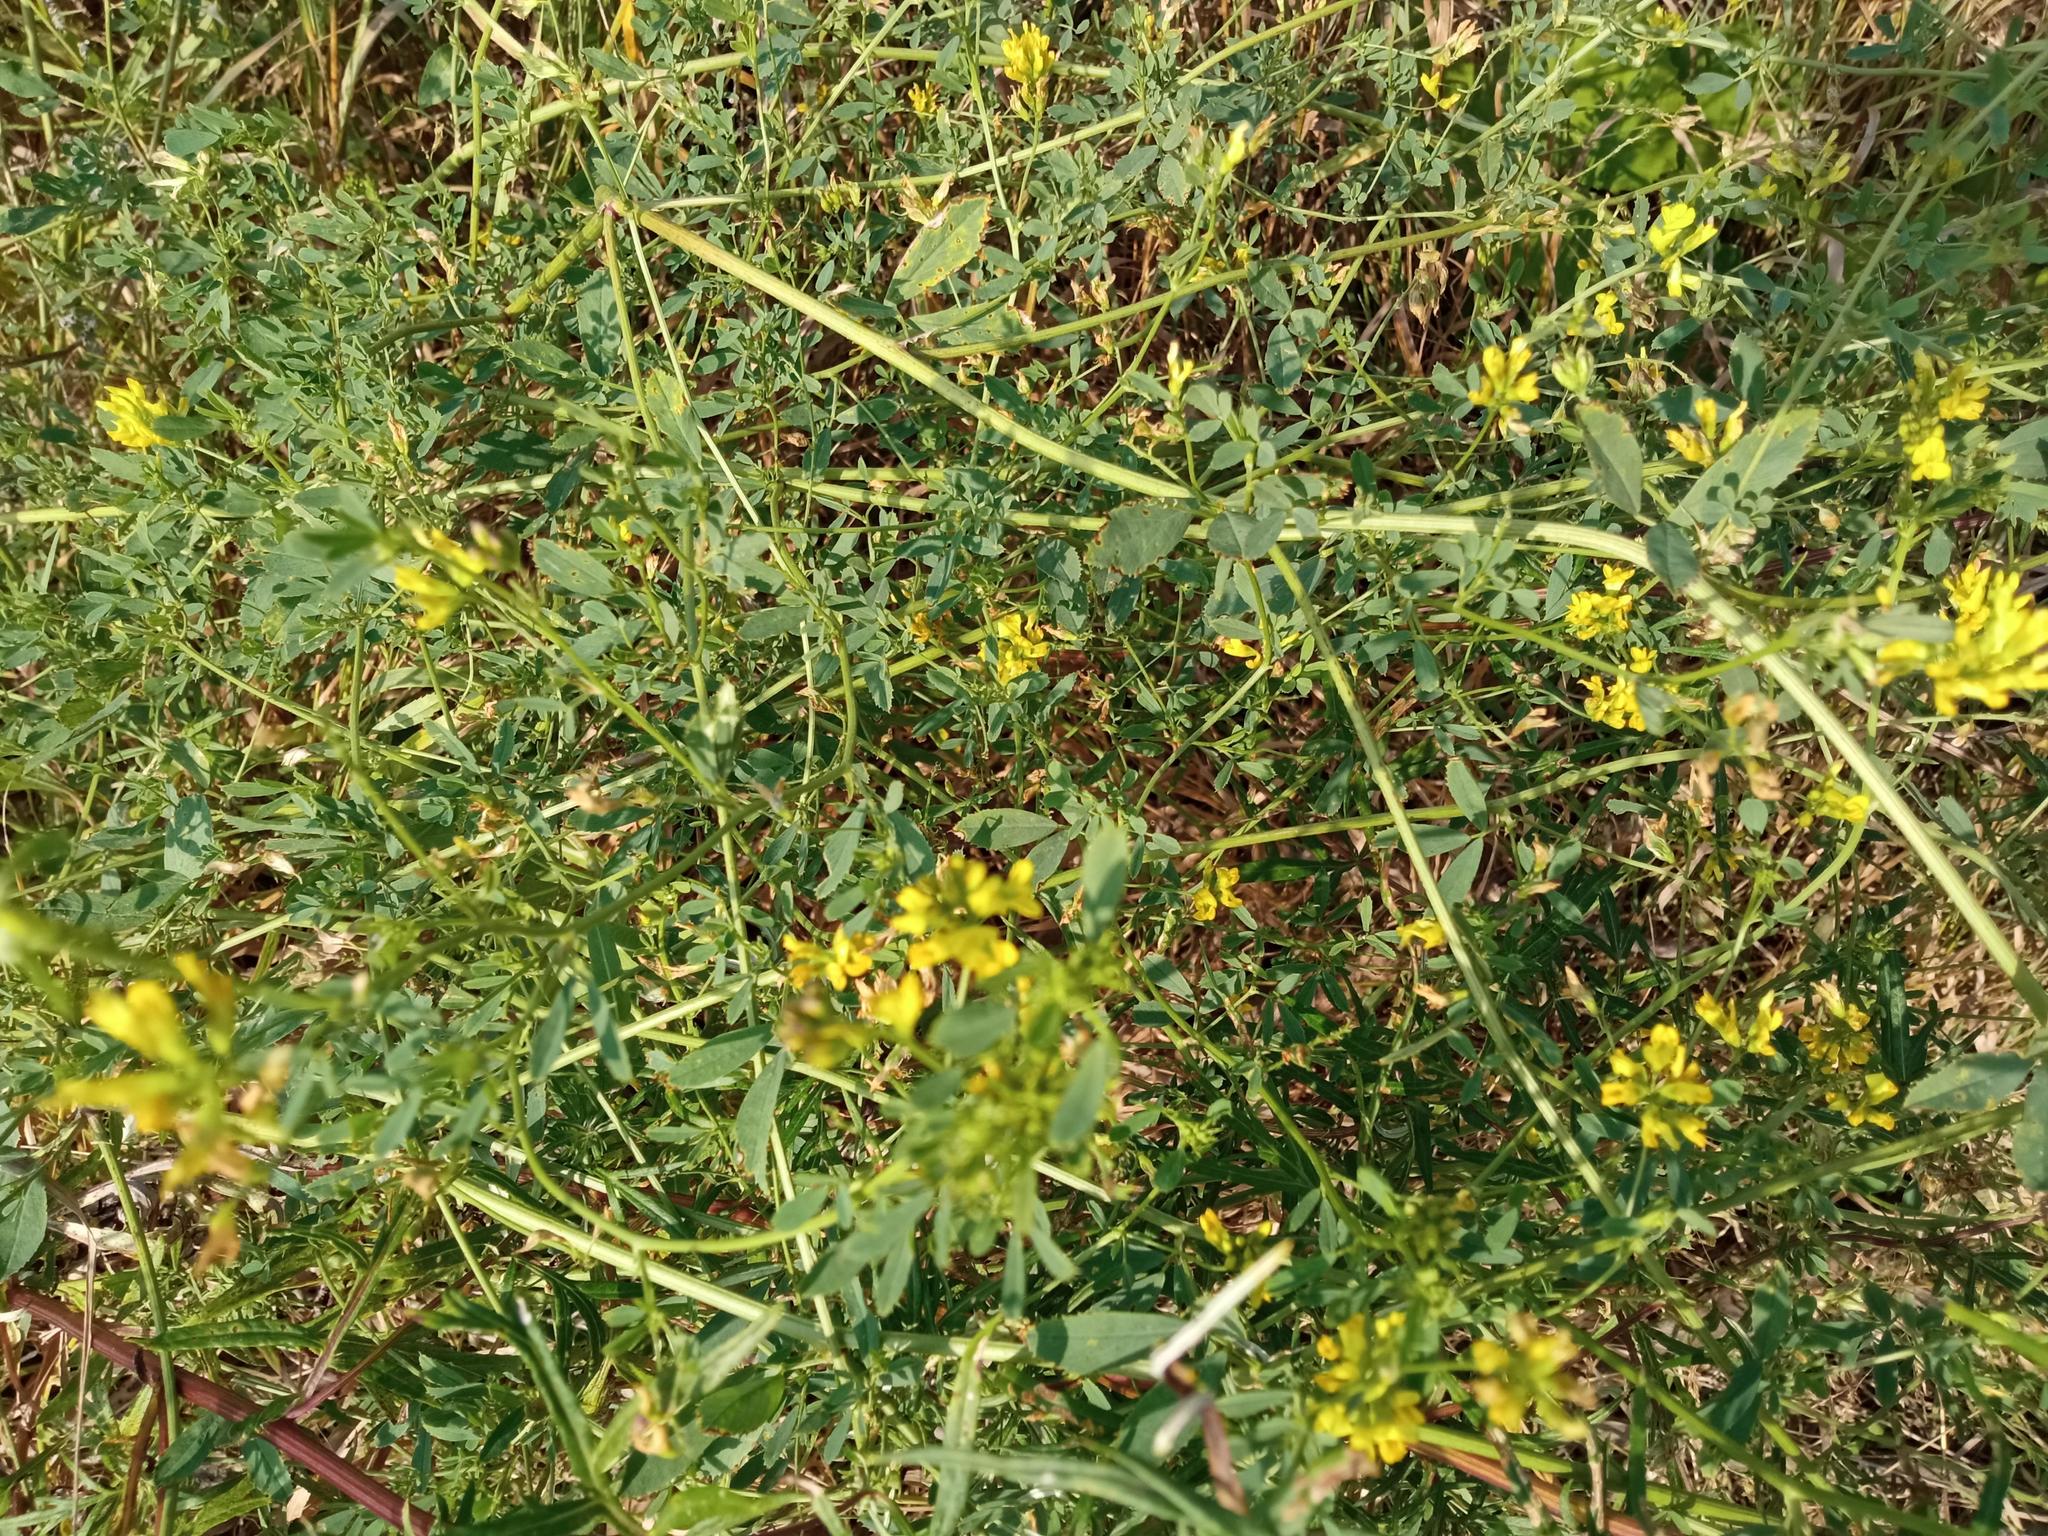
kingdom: Plantae
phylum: Tracheophyta
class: Magnoliopsida
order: Fabales
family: Fabaceae
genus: Medicago
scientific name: Medicago falcata
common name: Sickle medick
